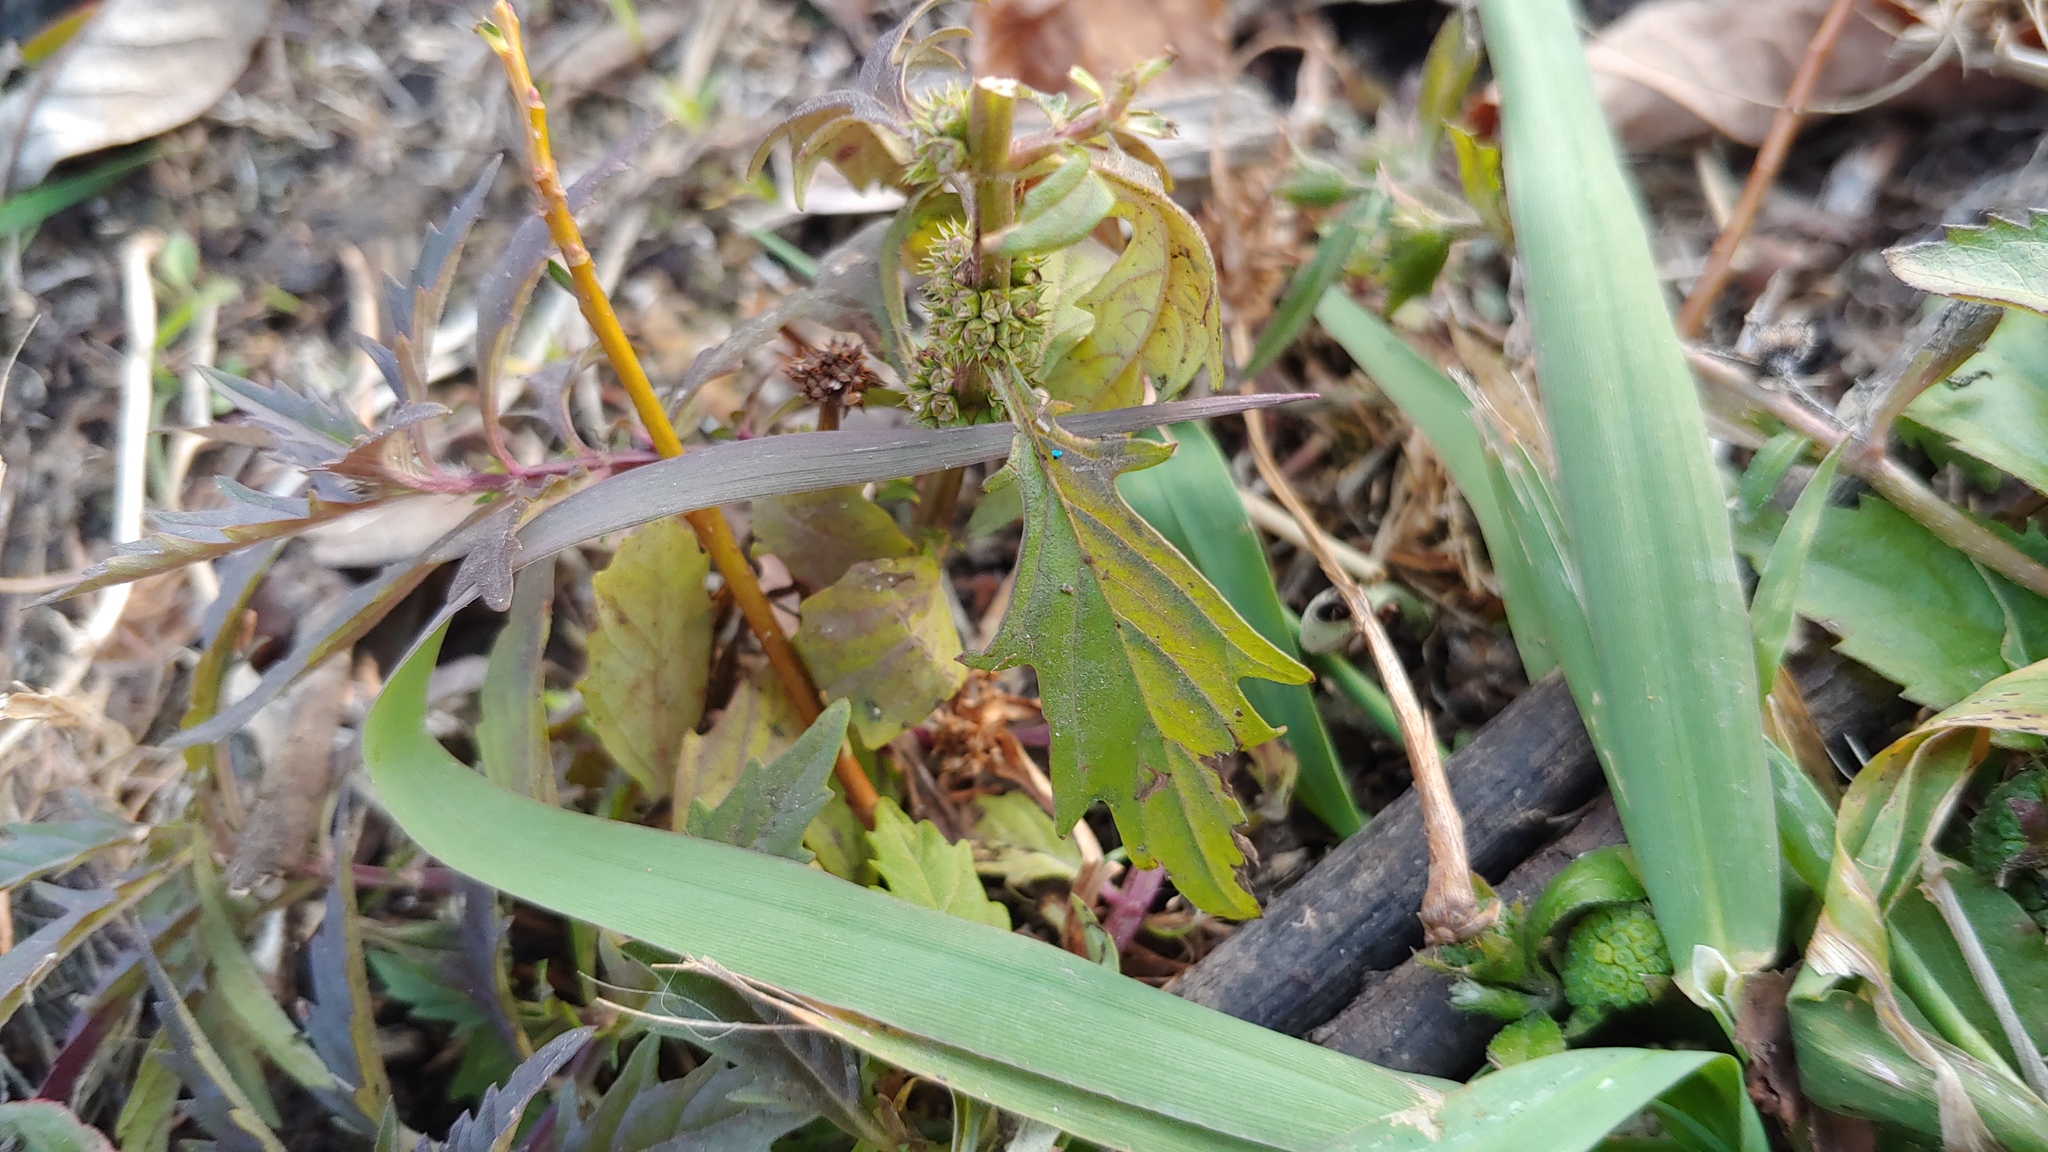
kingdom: Plantae
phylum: Tracheophyta
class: Magnoliopsida
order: Lamiales
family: Lamiaceae
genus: Lycopus
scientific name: Lycopus americanus
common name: American bugleweed
